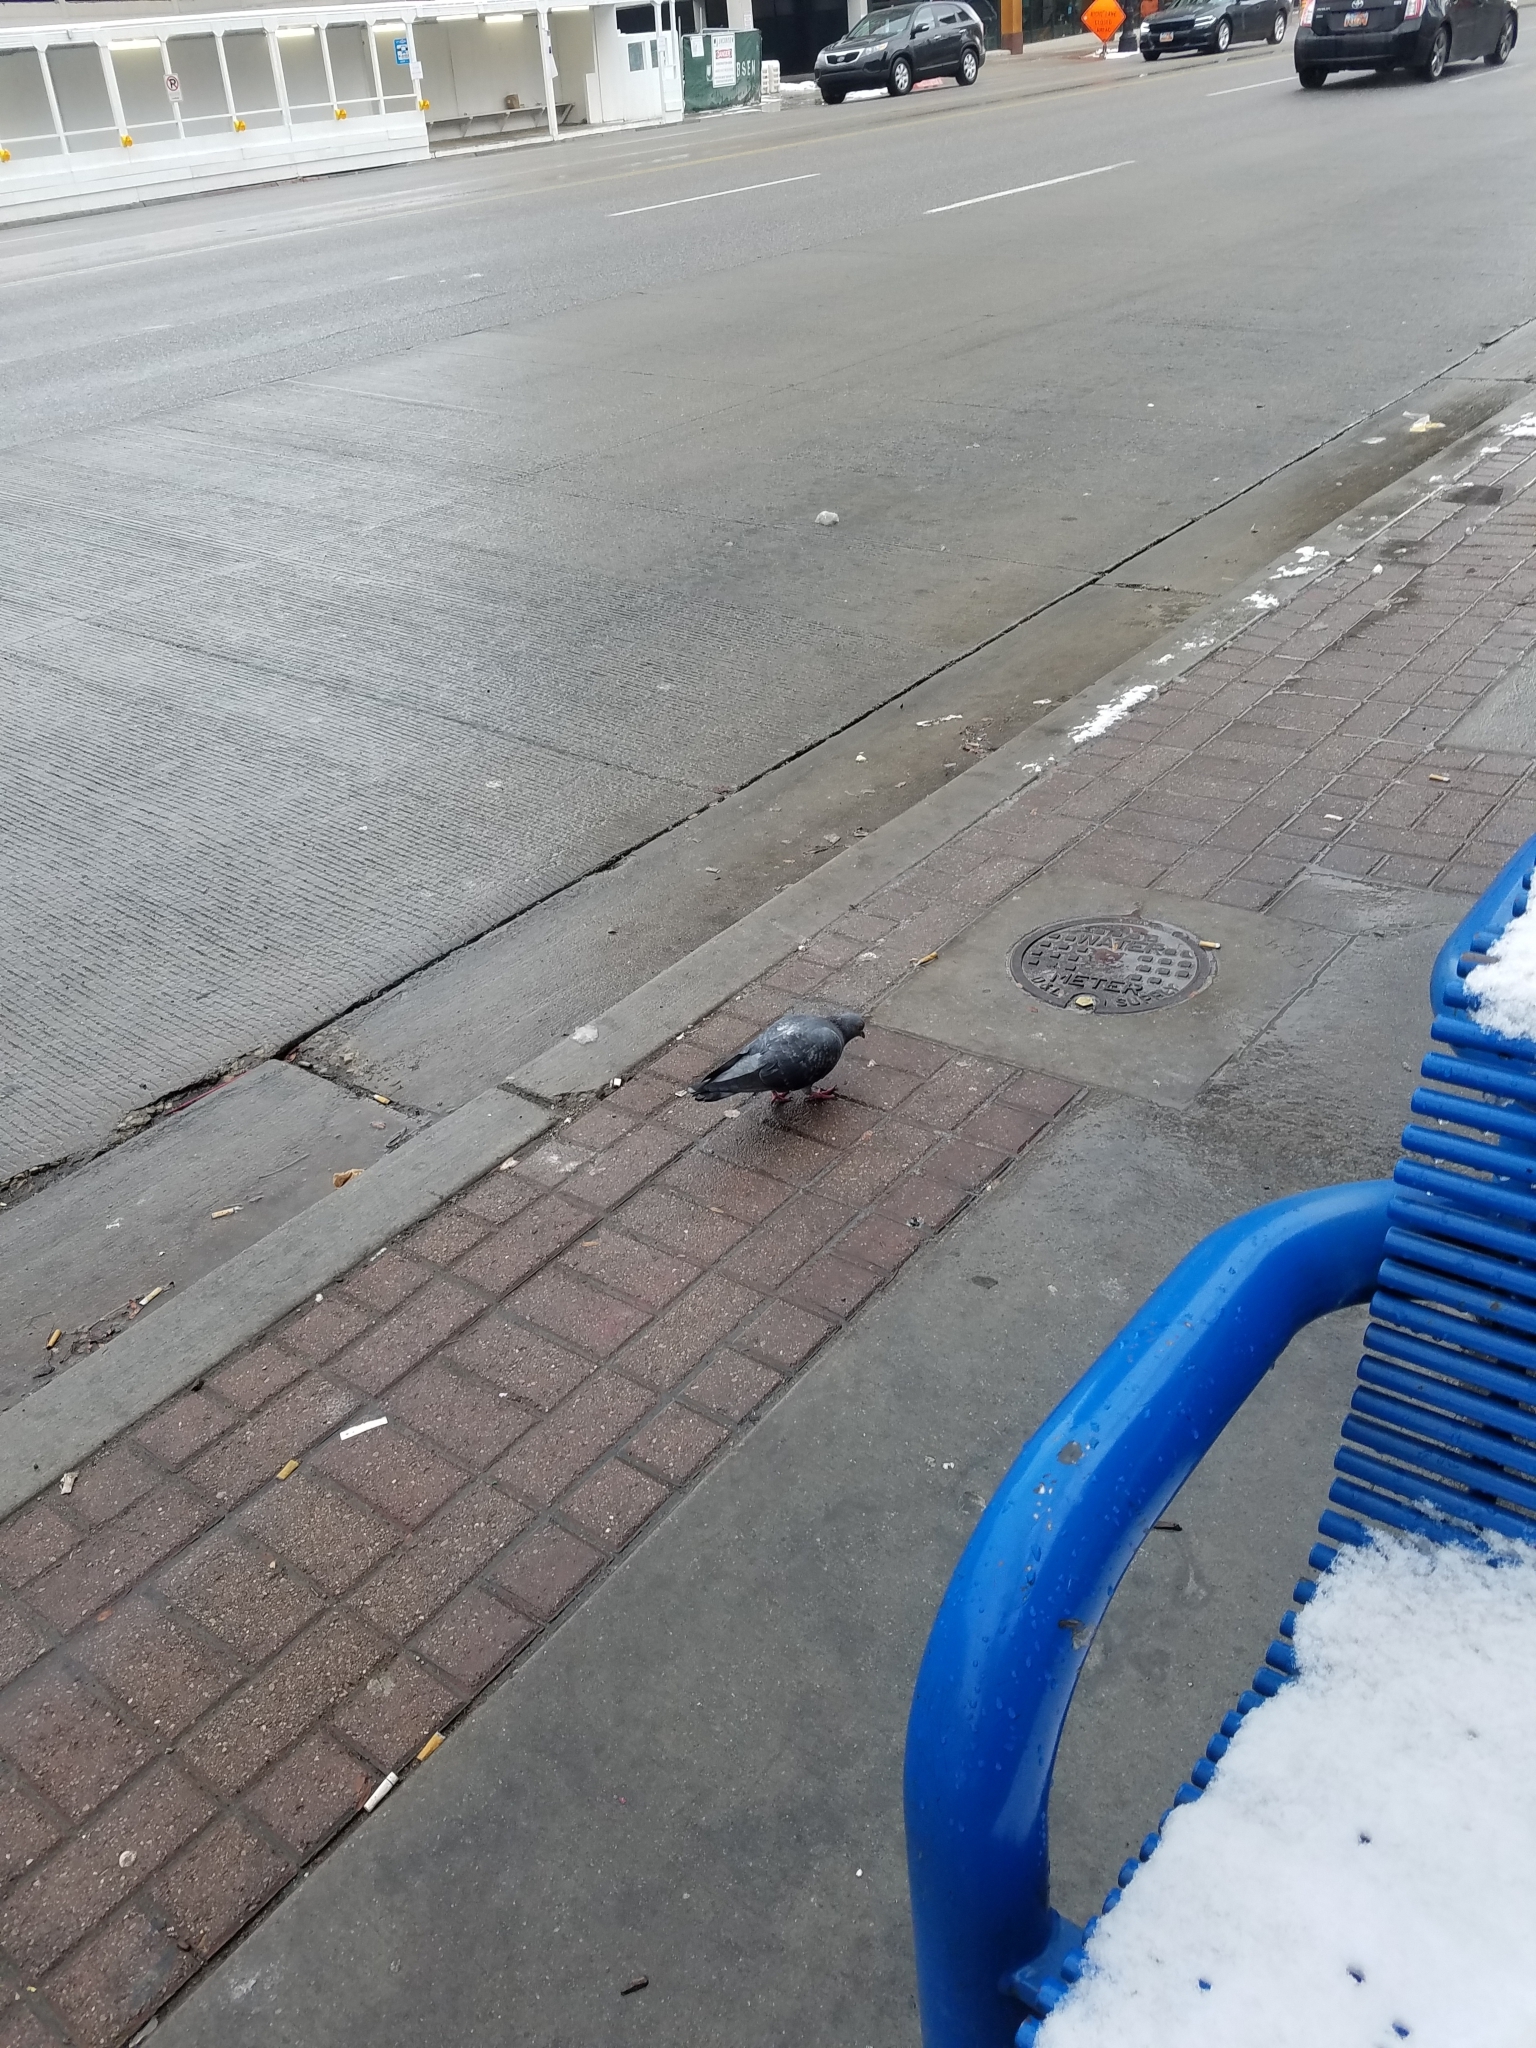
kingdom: Animalia
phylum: Chordata
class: Aves
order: Columbiformes
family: Columbidae
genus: Columba
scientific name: Columba livia
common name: Rock pigeon
